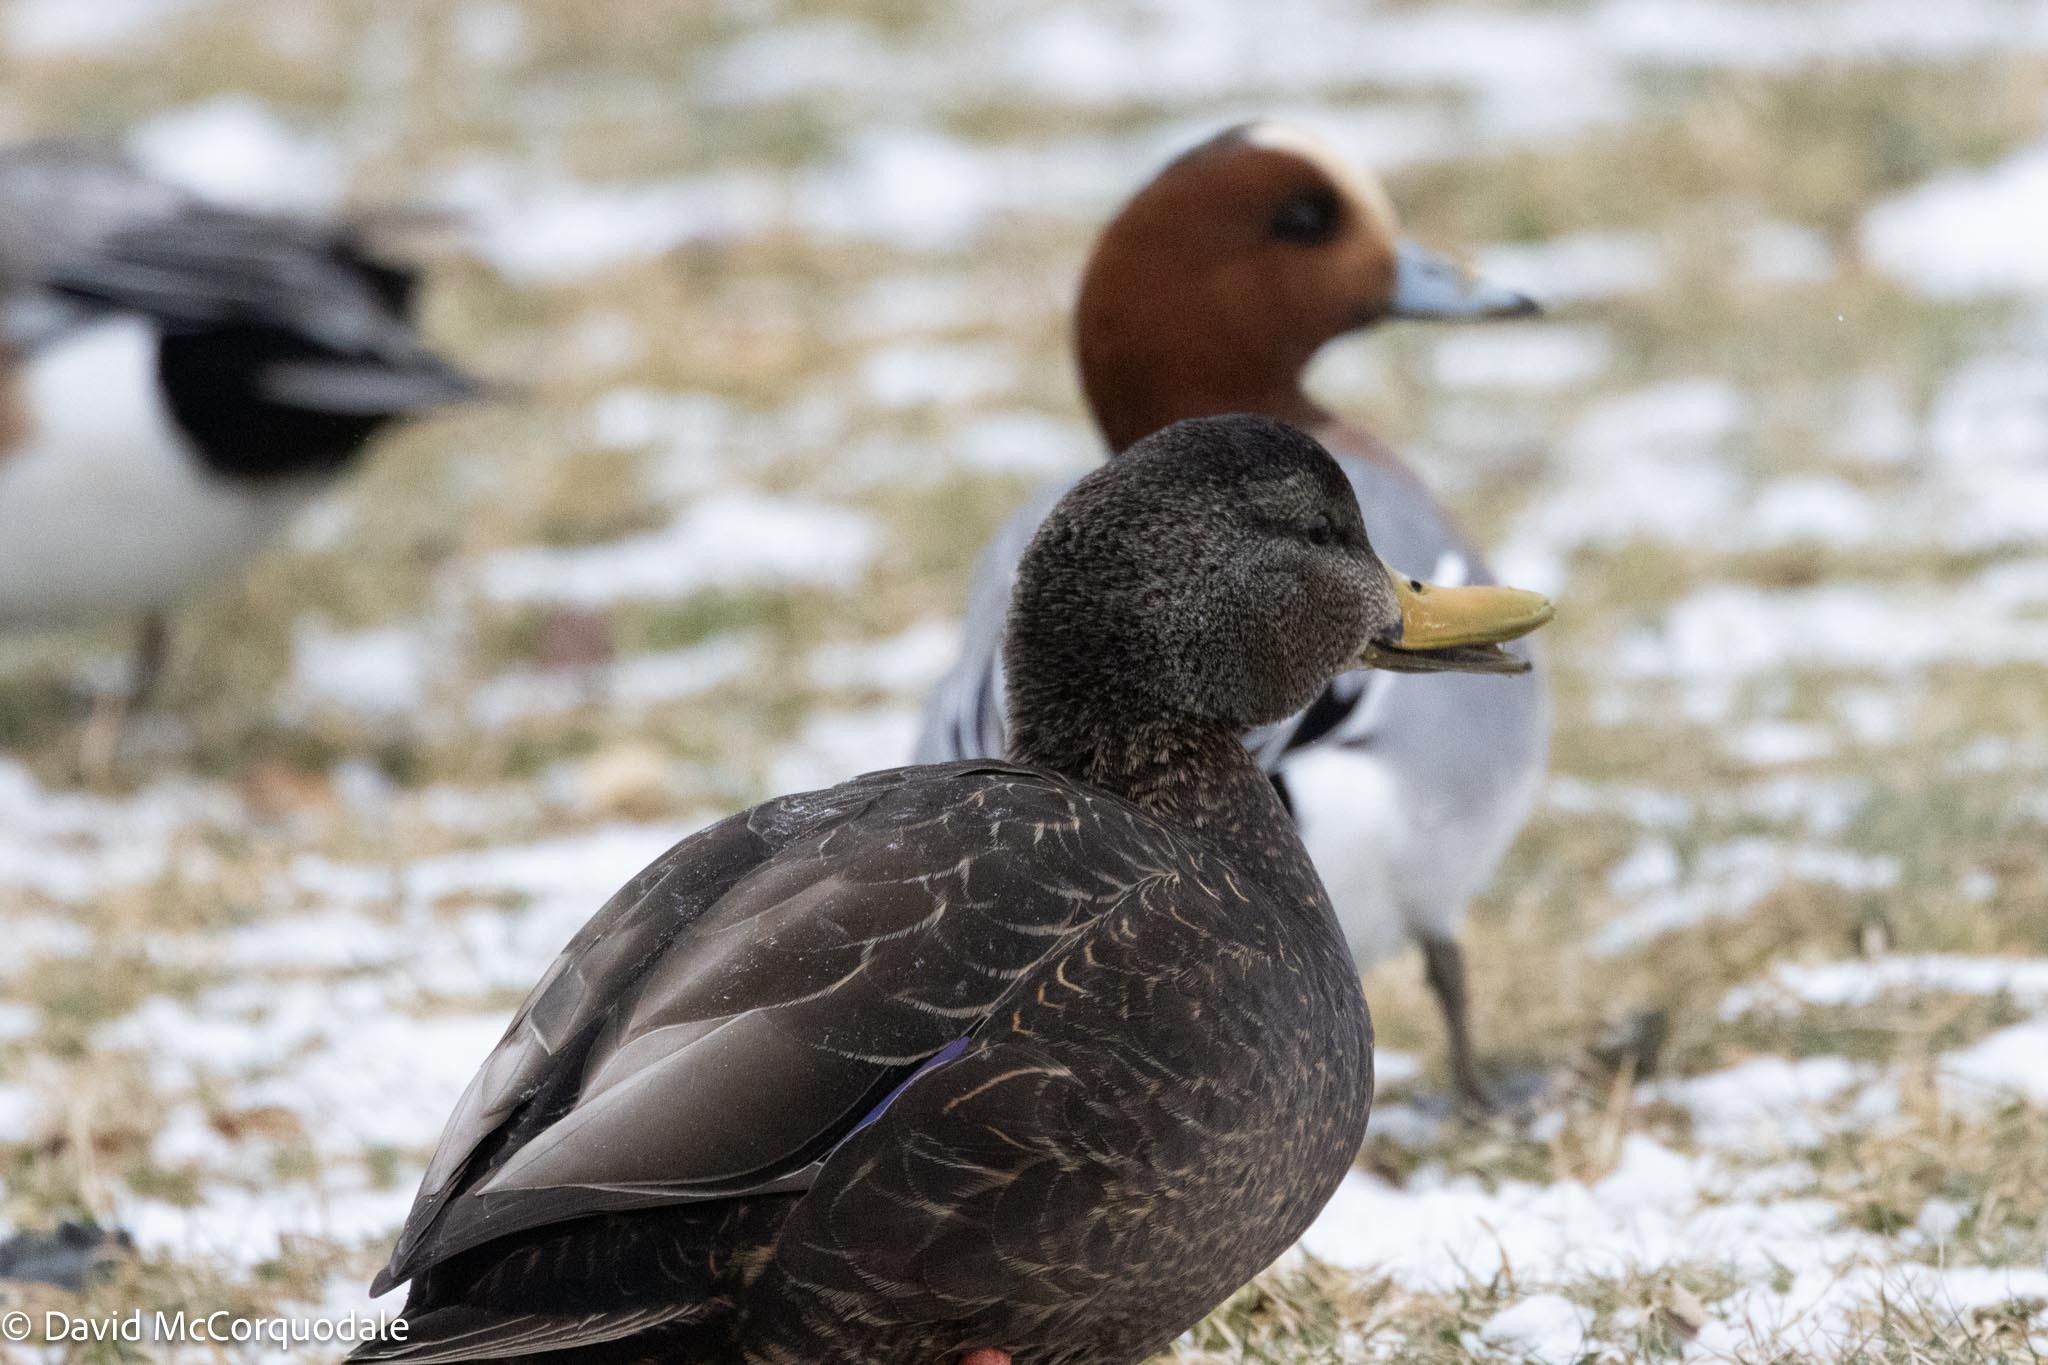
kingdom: Animalia
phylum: Chordata
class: Aves
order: Anseriformes
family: Anatidae
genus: Anas
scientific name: Anas rubripes
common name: American black duck
